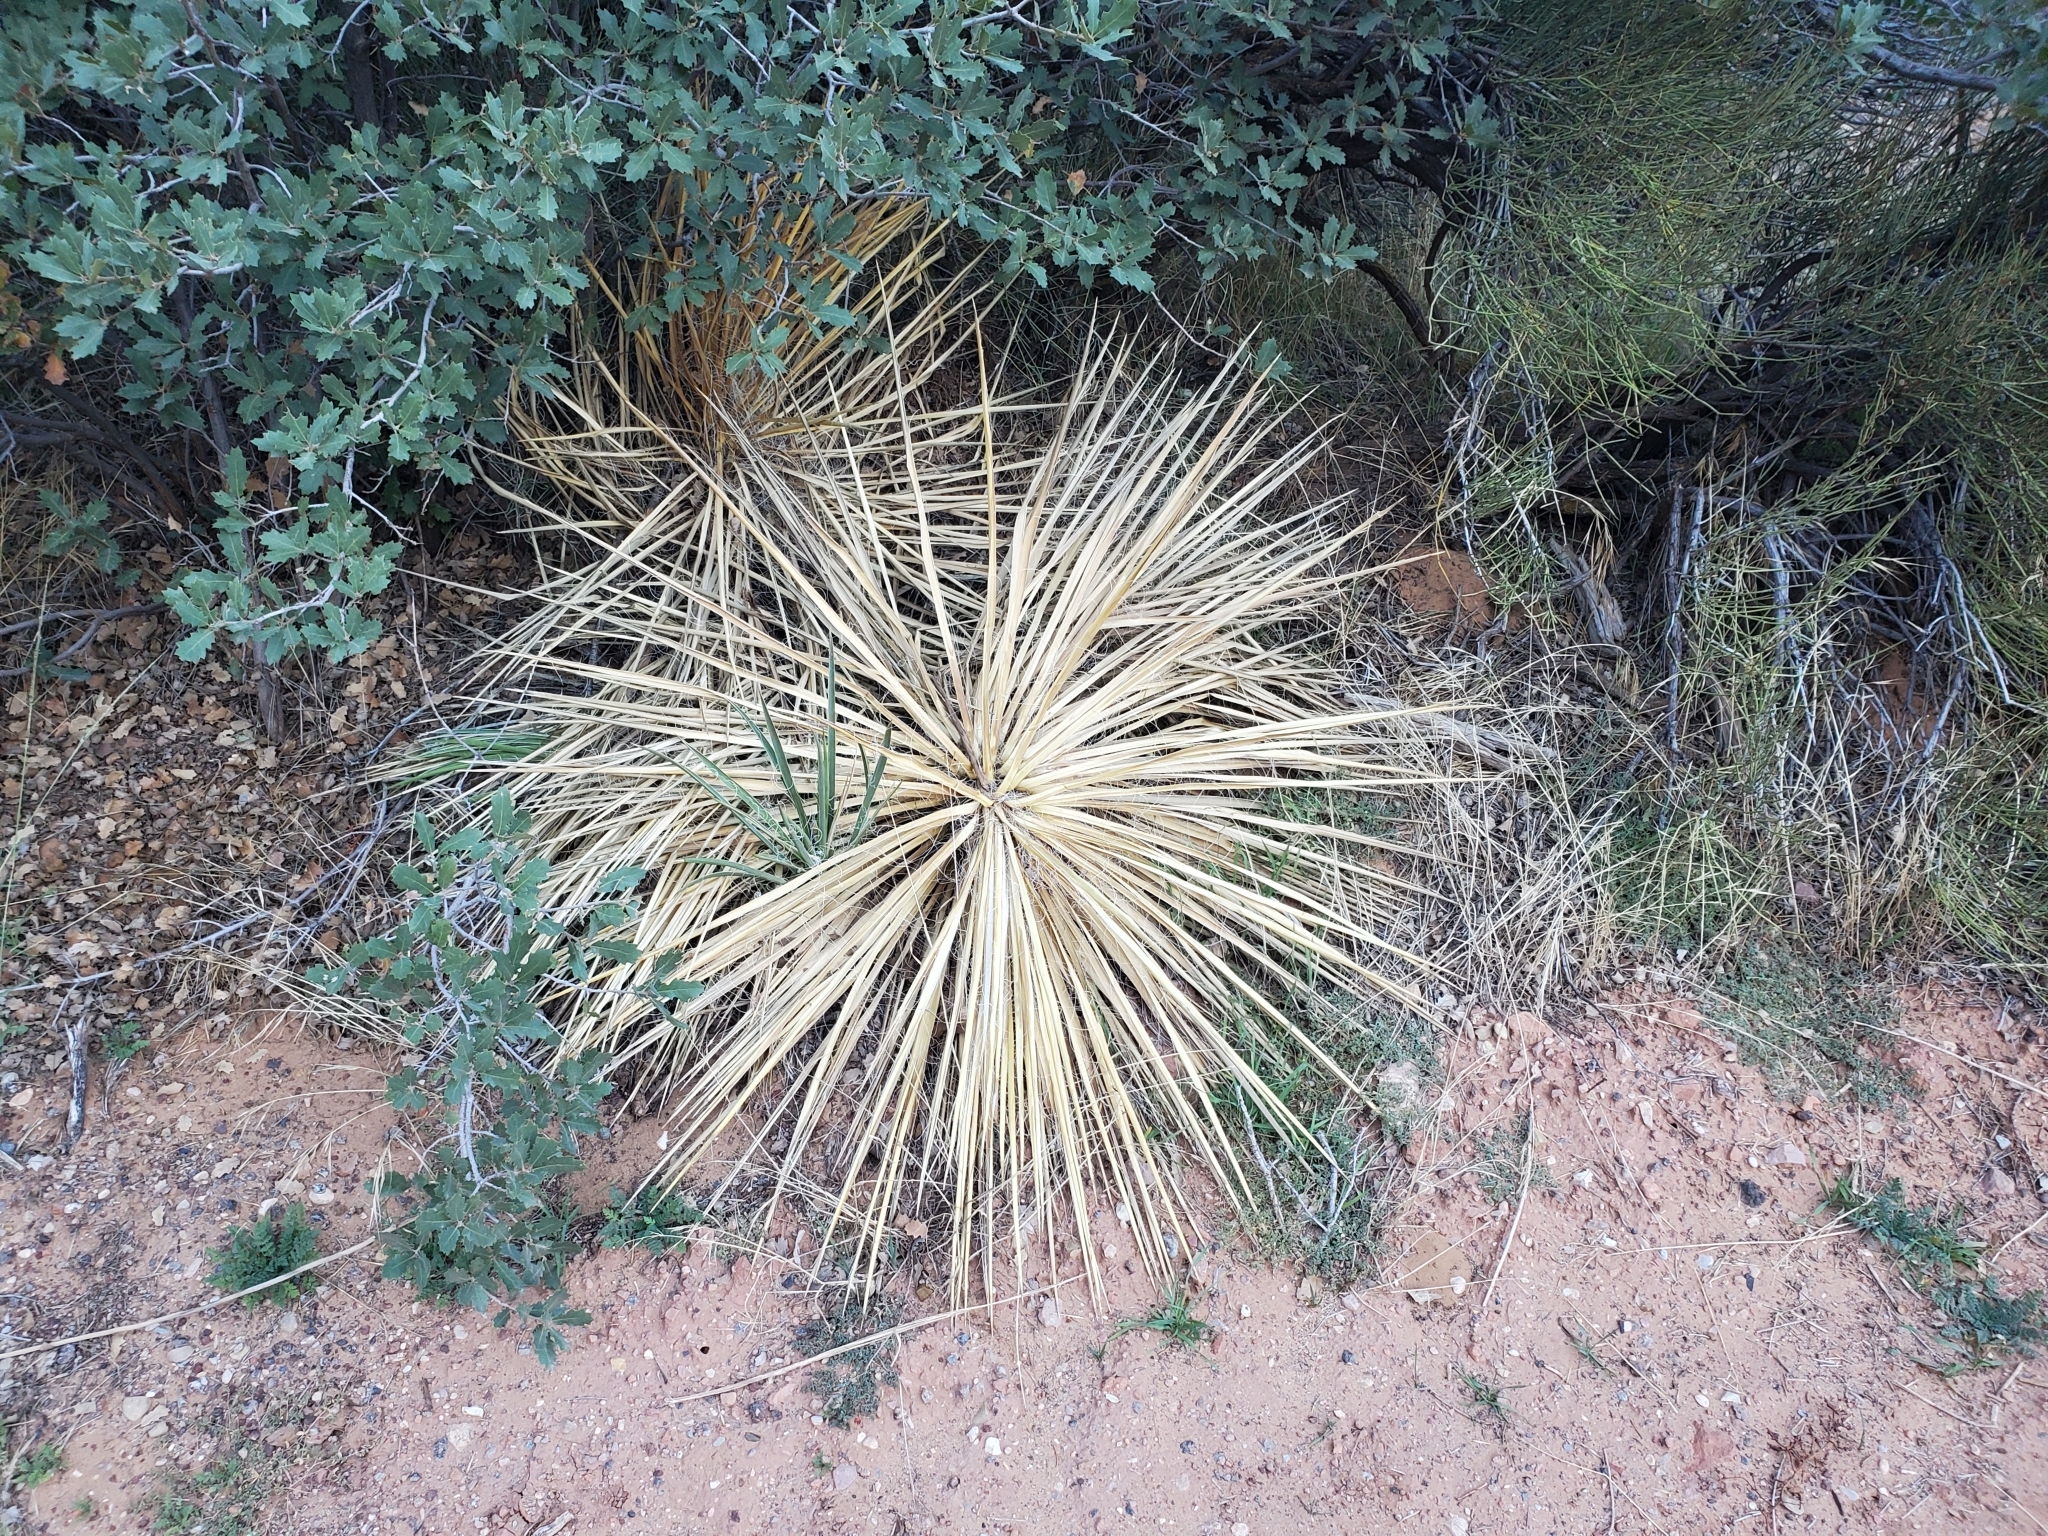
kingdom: Plantae
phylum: Tracheophyta
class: Liliopsida
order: Asparagales
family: Asparagaceae
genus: Yucca
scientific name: Yucca angustissima
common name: Narrowleaf yucca
